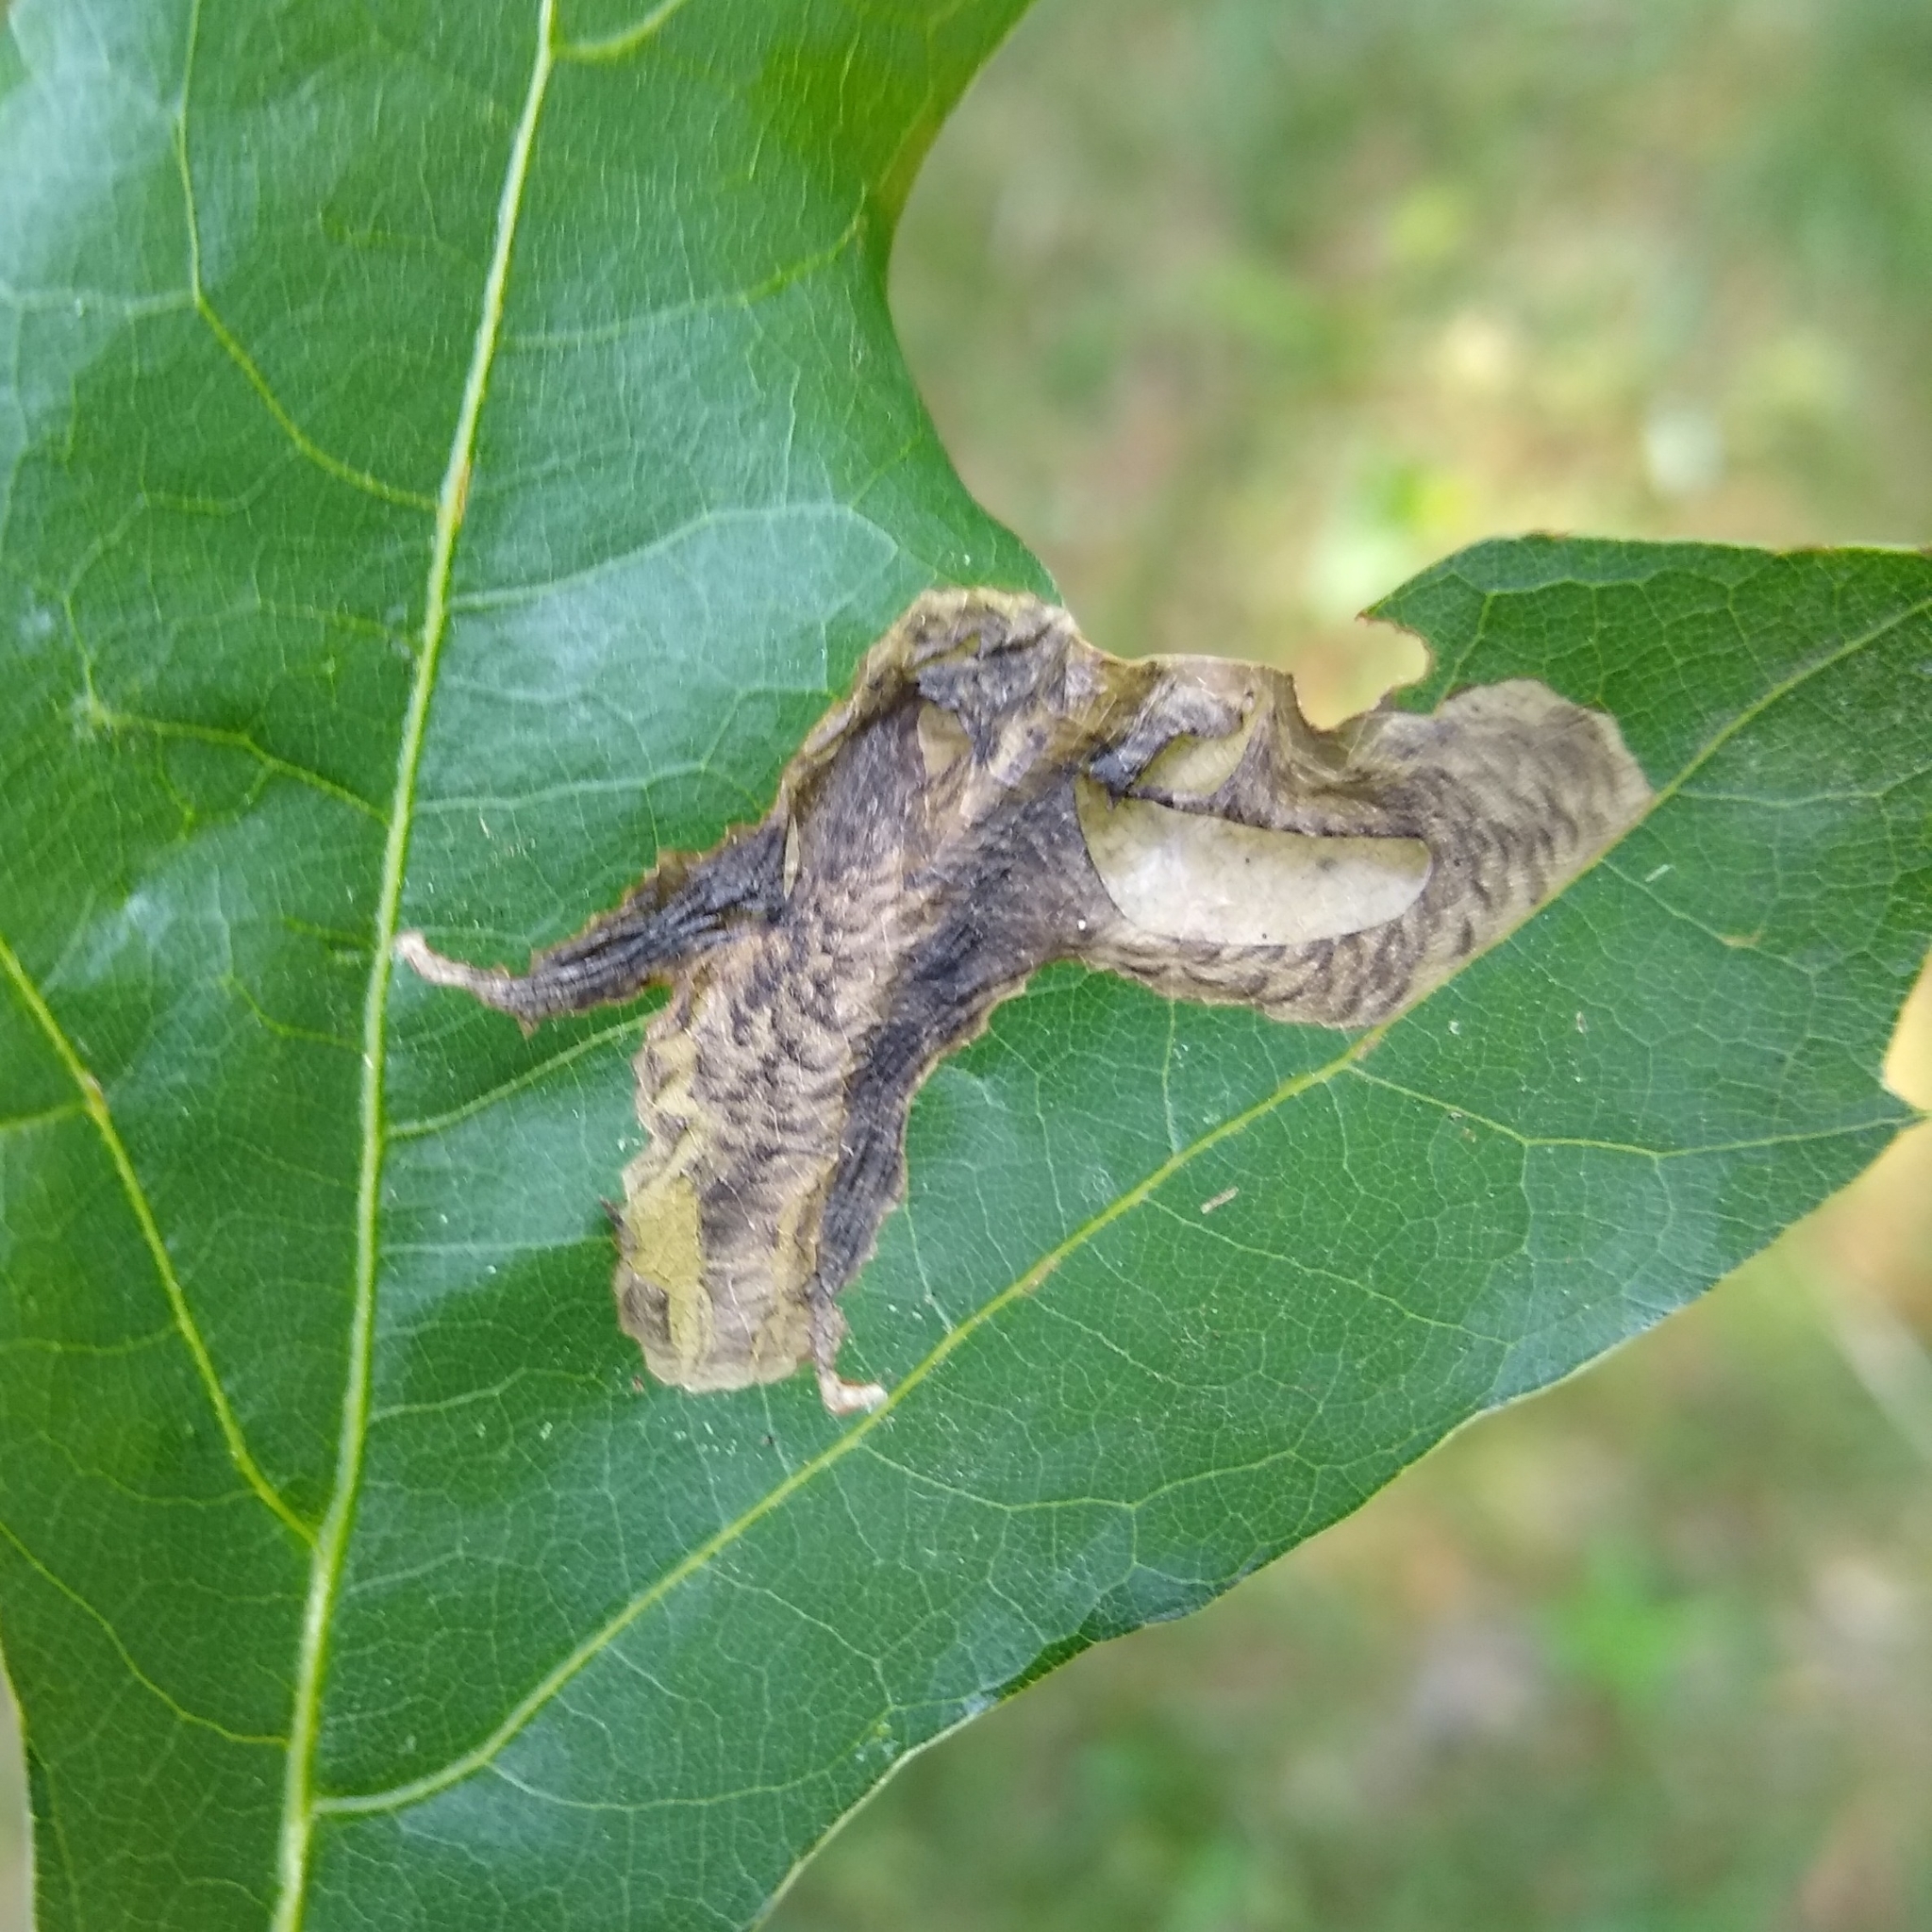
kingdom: Animalia
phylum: Arthropoda
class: Insecta
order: Lepidoptera
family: Tischeriidae
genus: Coptotriche
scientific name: Coptotriche castaneaeella
